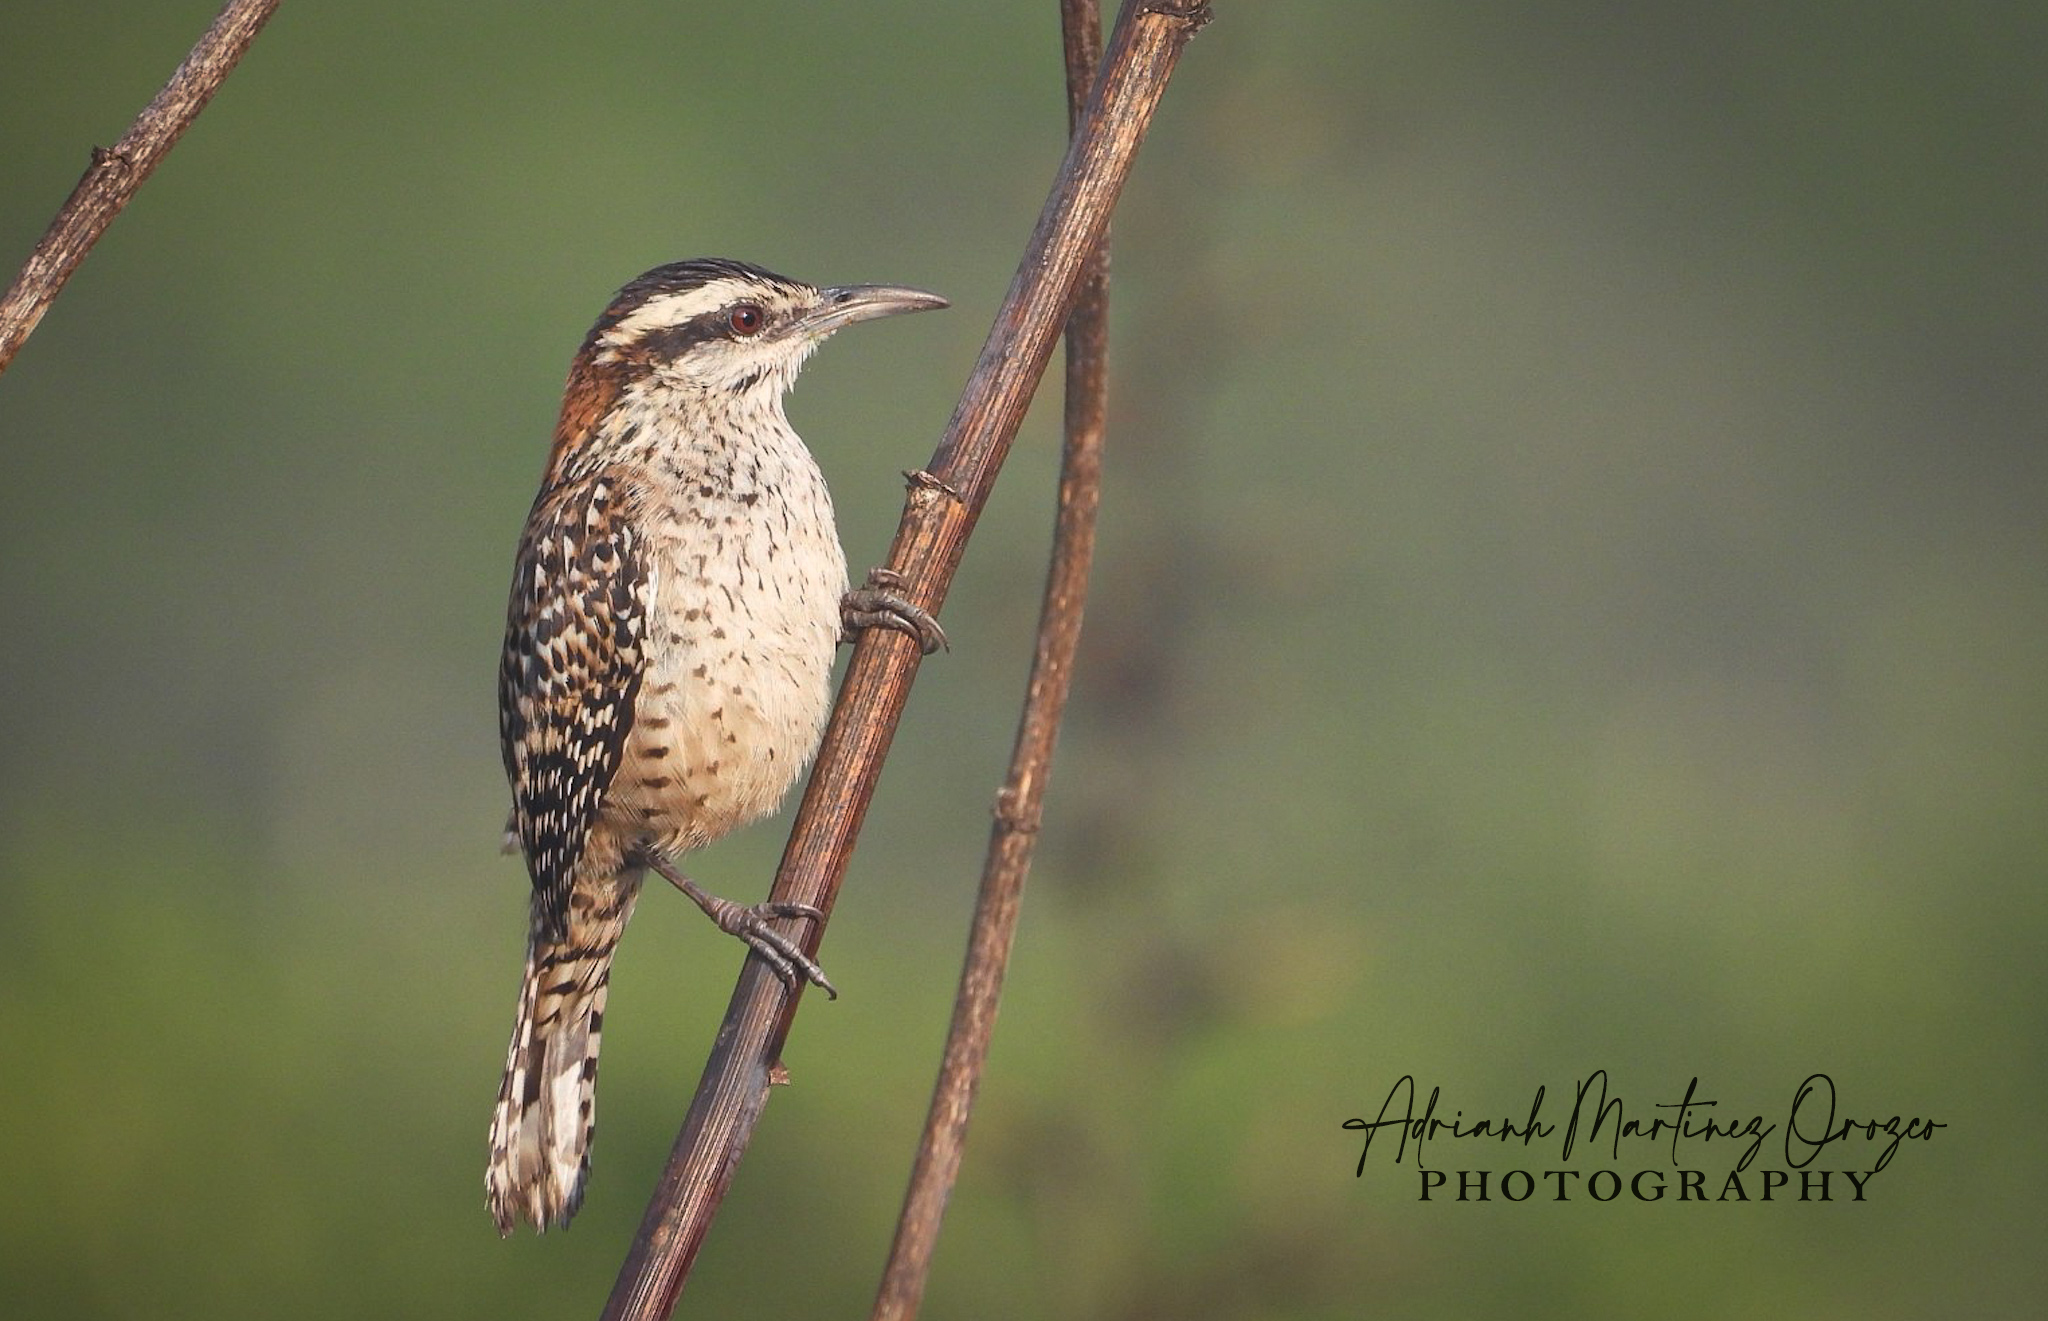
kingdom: Animalia
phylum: Chordata
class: Aves
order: Passeriformes
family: Troglodytidae
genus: Campylorhynchus
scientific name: Campylorhynchus rufinucha
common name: Rufous-naped wren
